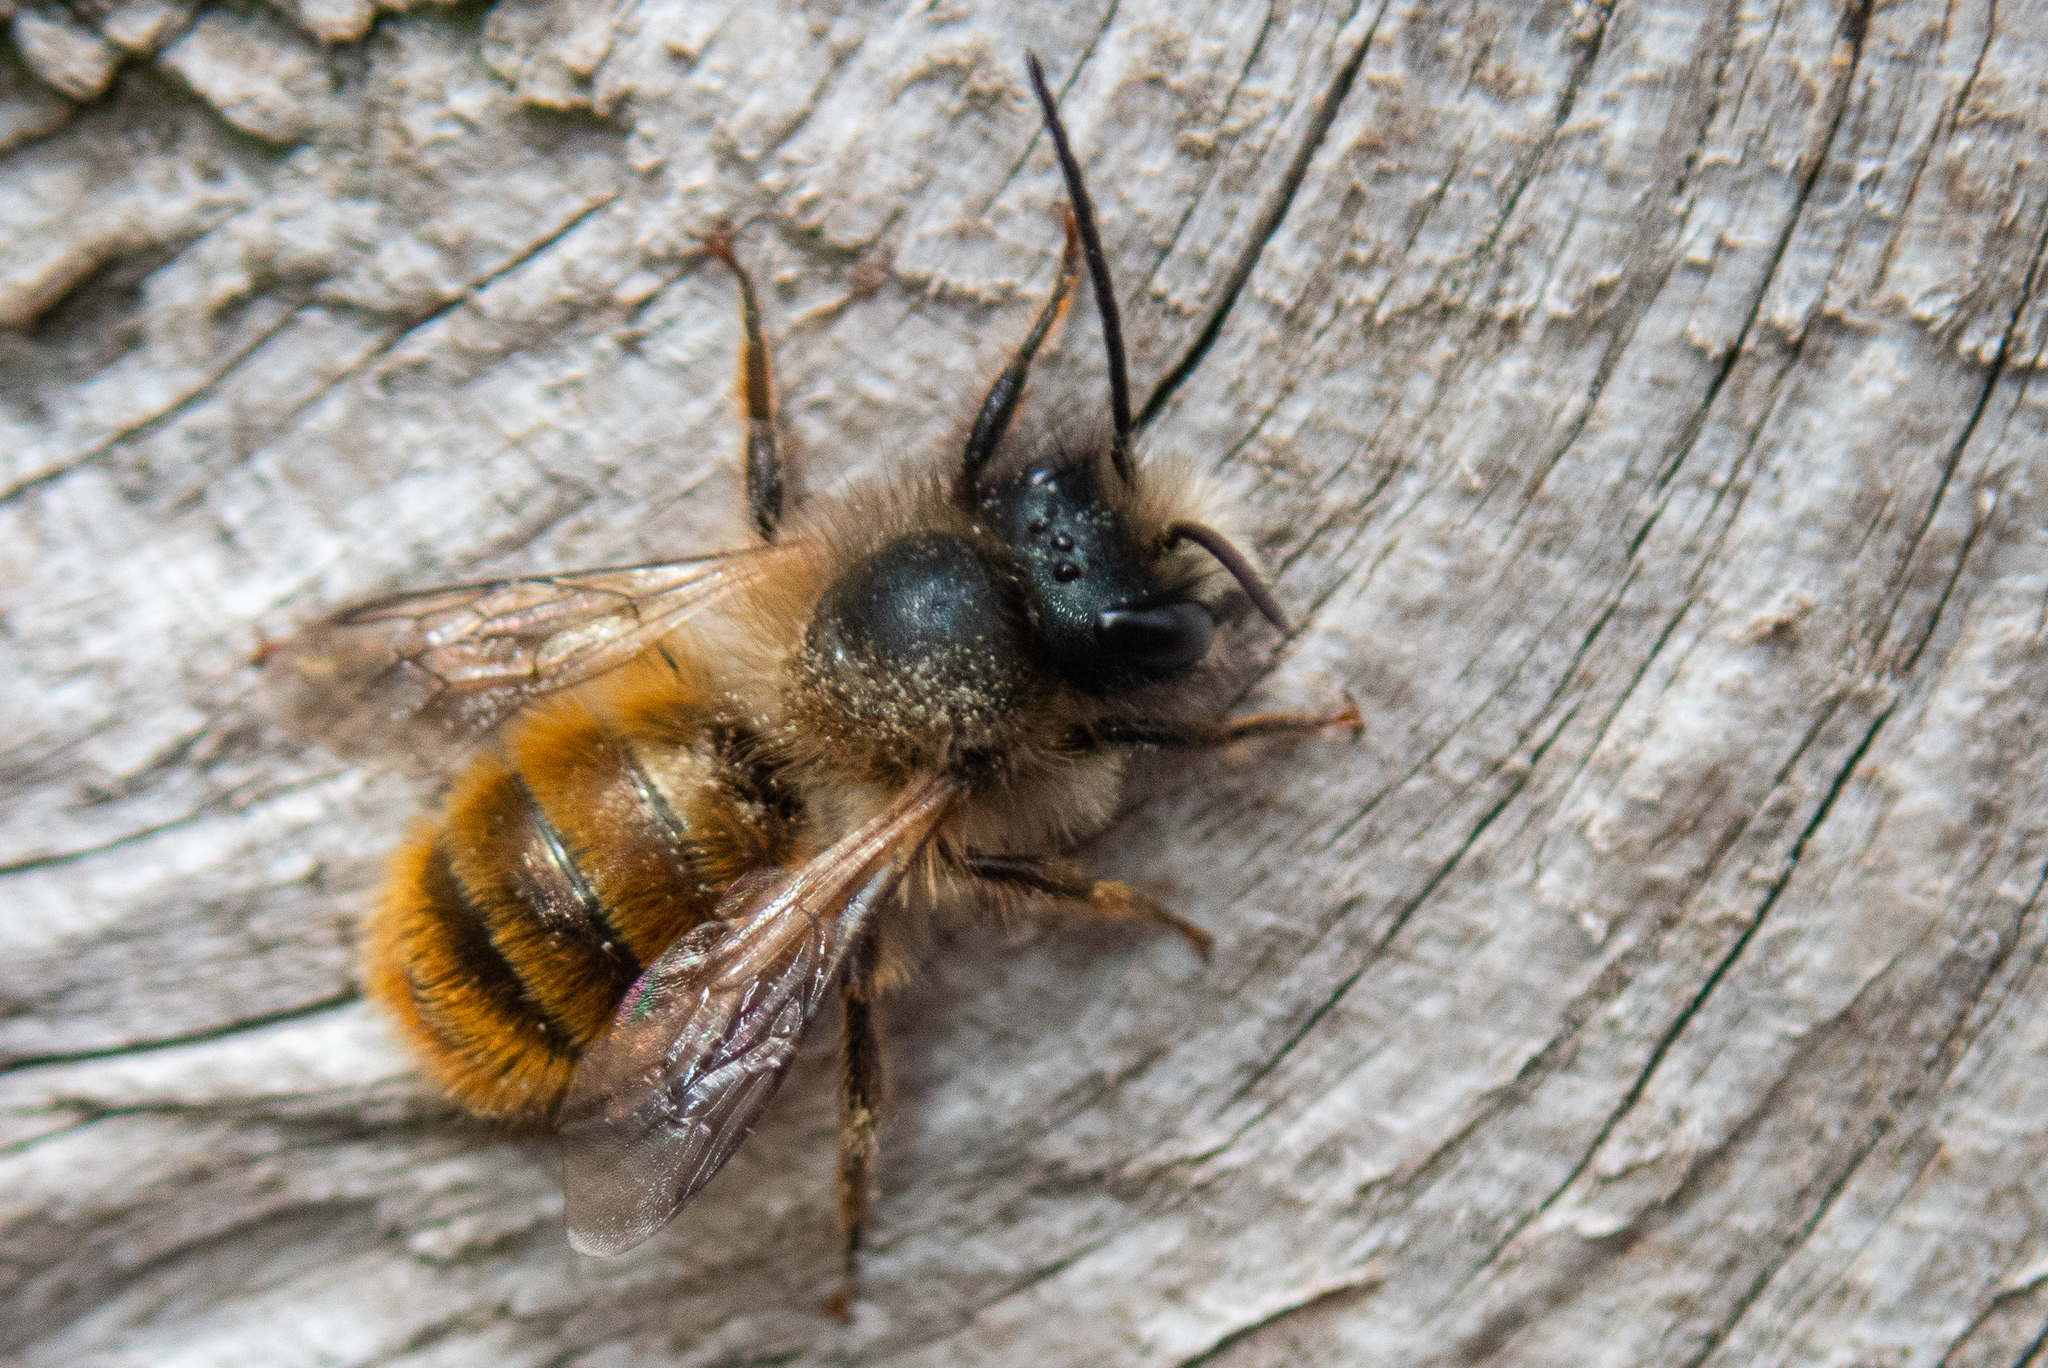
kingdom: Animalia
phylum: Arthropoda
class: Insecta
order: Hymenoptera
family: Megachilidae
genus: Osmia
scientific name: Osmia bicornis
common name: Red mason bee
